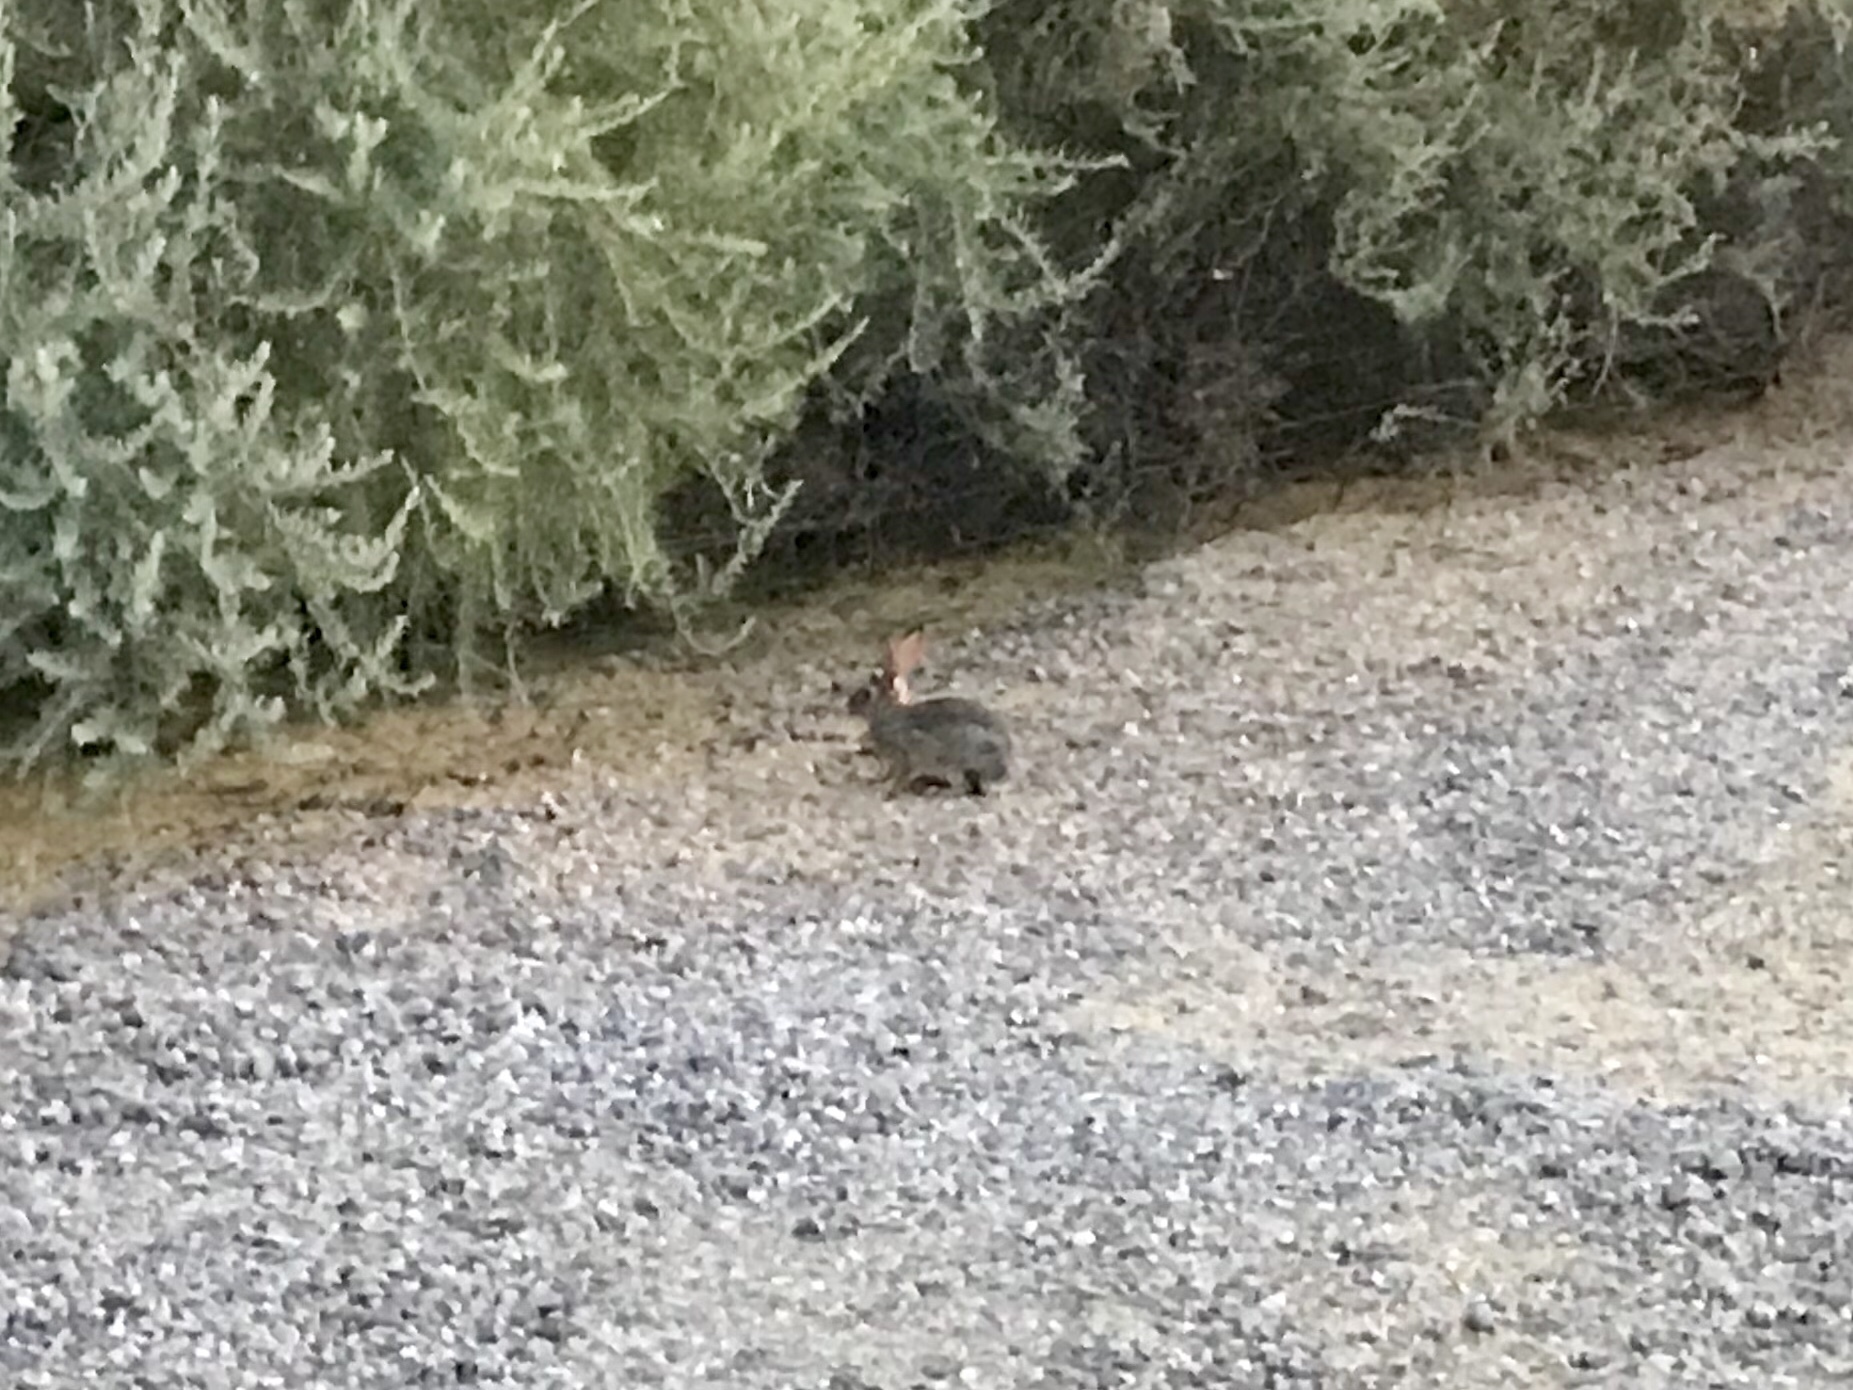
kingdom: Animalia
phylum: Chordata
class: Mammalia
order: Lagomorpha
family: Leporidae
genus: Sylvilagus
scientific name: Sylvilagus audubonii
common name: Desert cottontail
